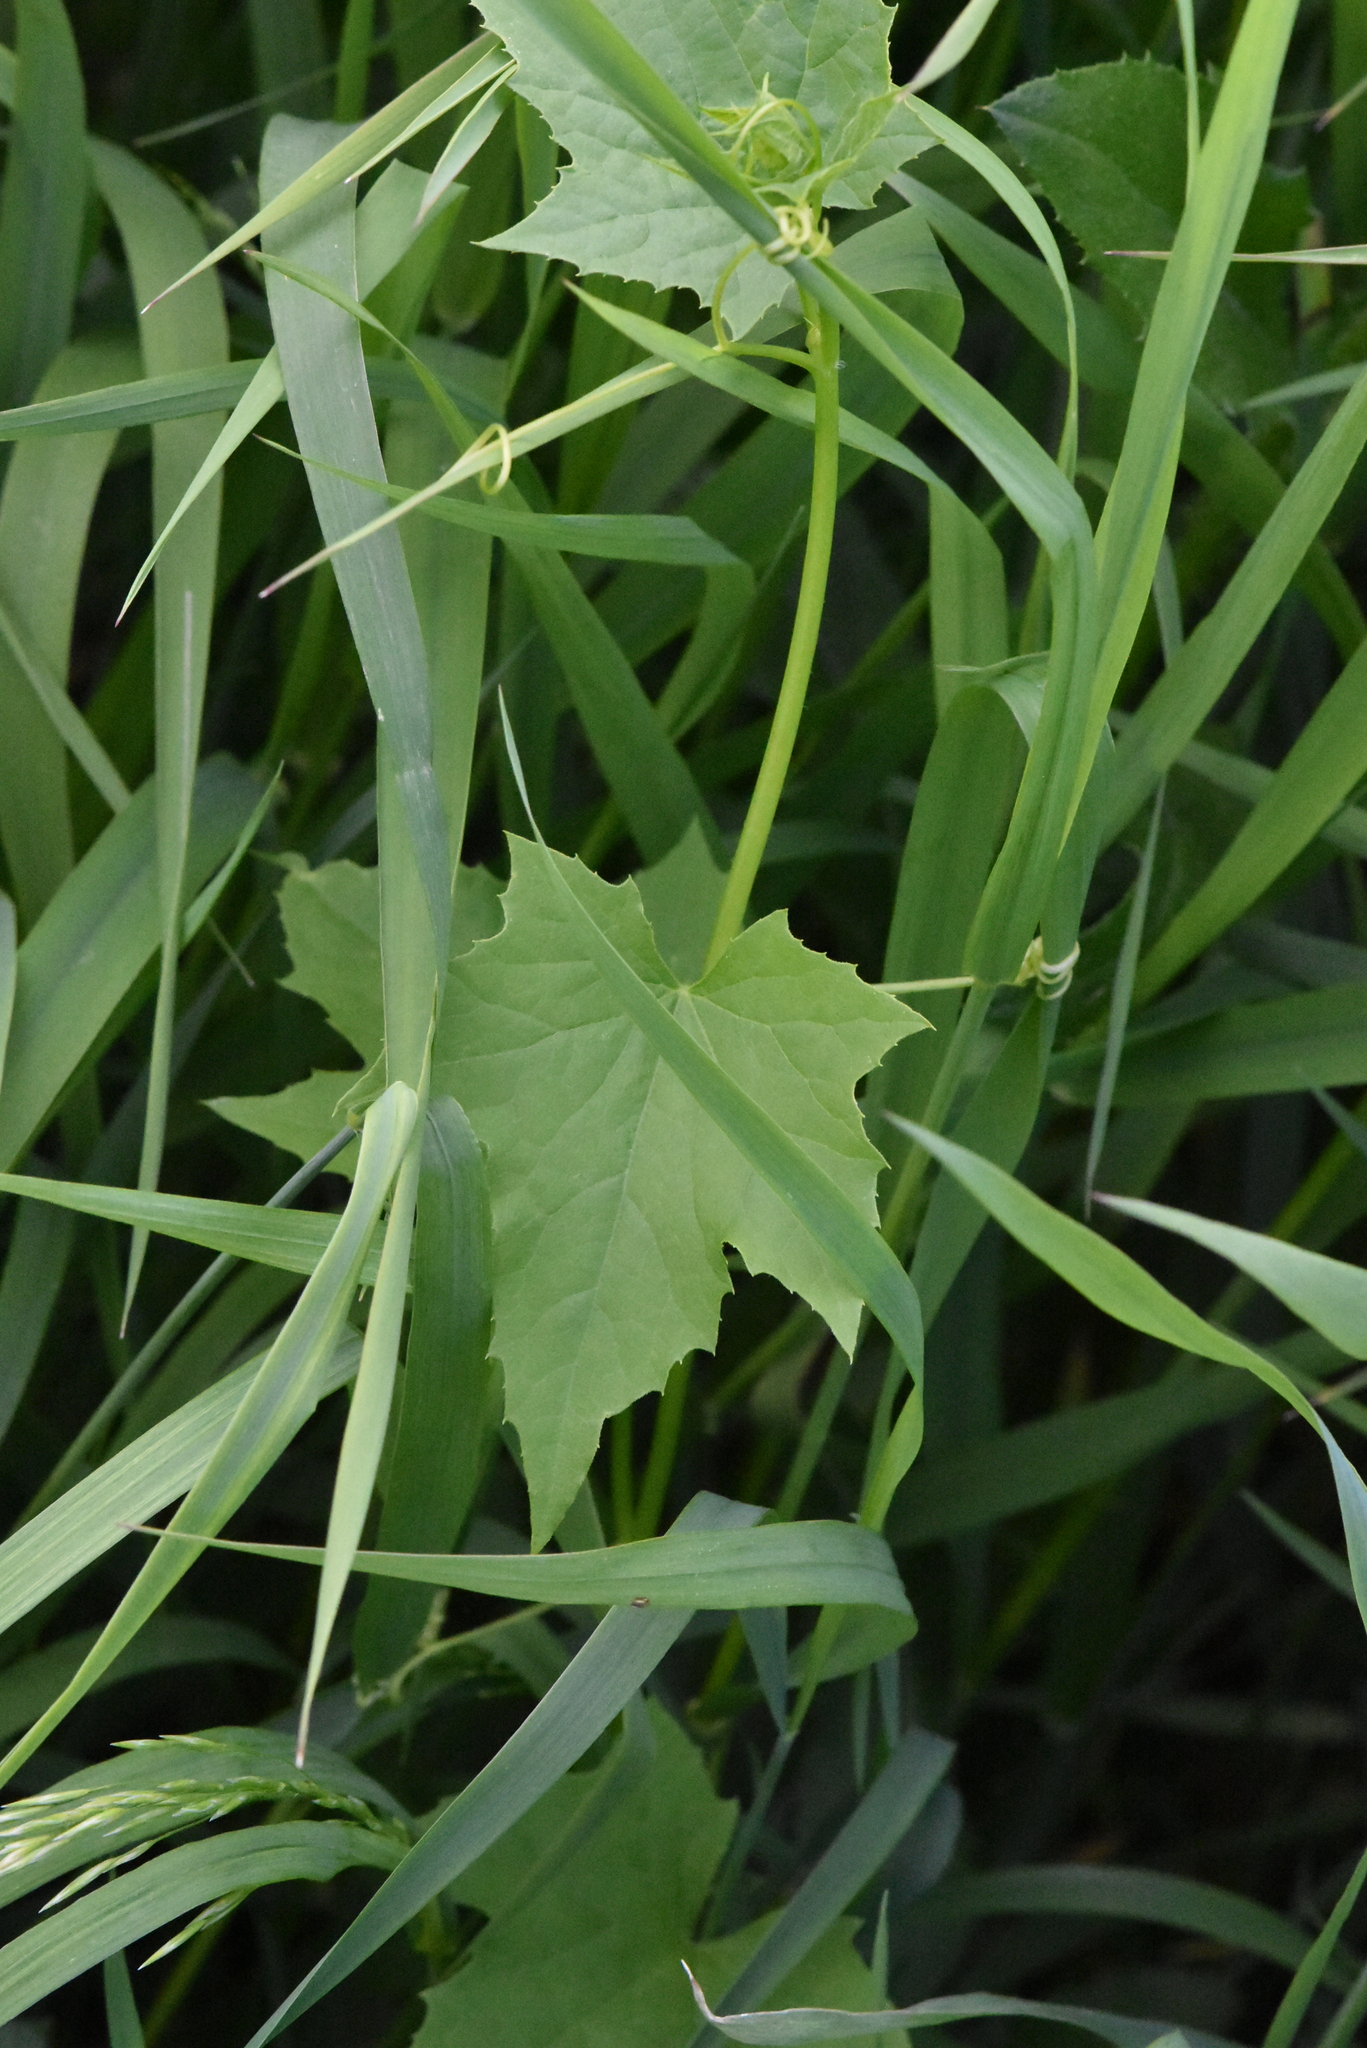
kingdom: Plantae
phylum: Tracheophyta
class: Magnoliopsida
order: Cucurbitales
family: Cucurbitaceae
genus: Echinocystis
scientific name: Echinocystis lobata
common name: Wild cucumber
